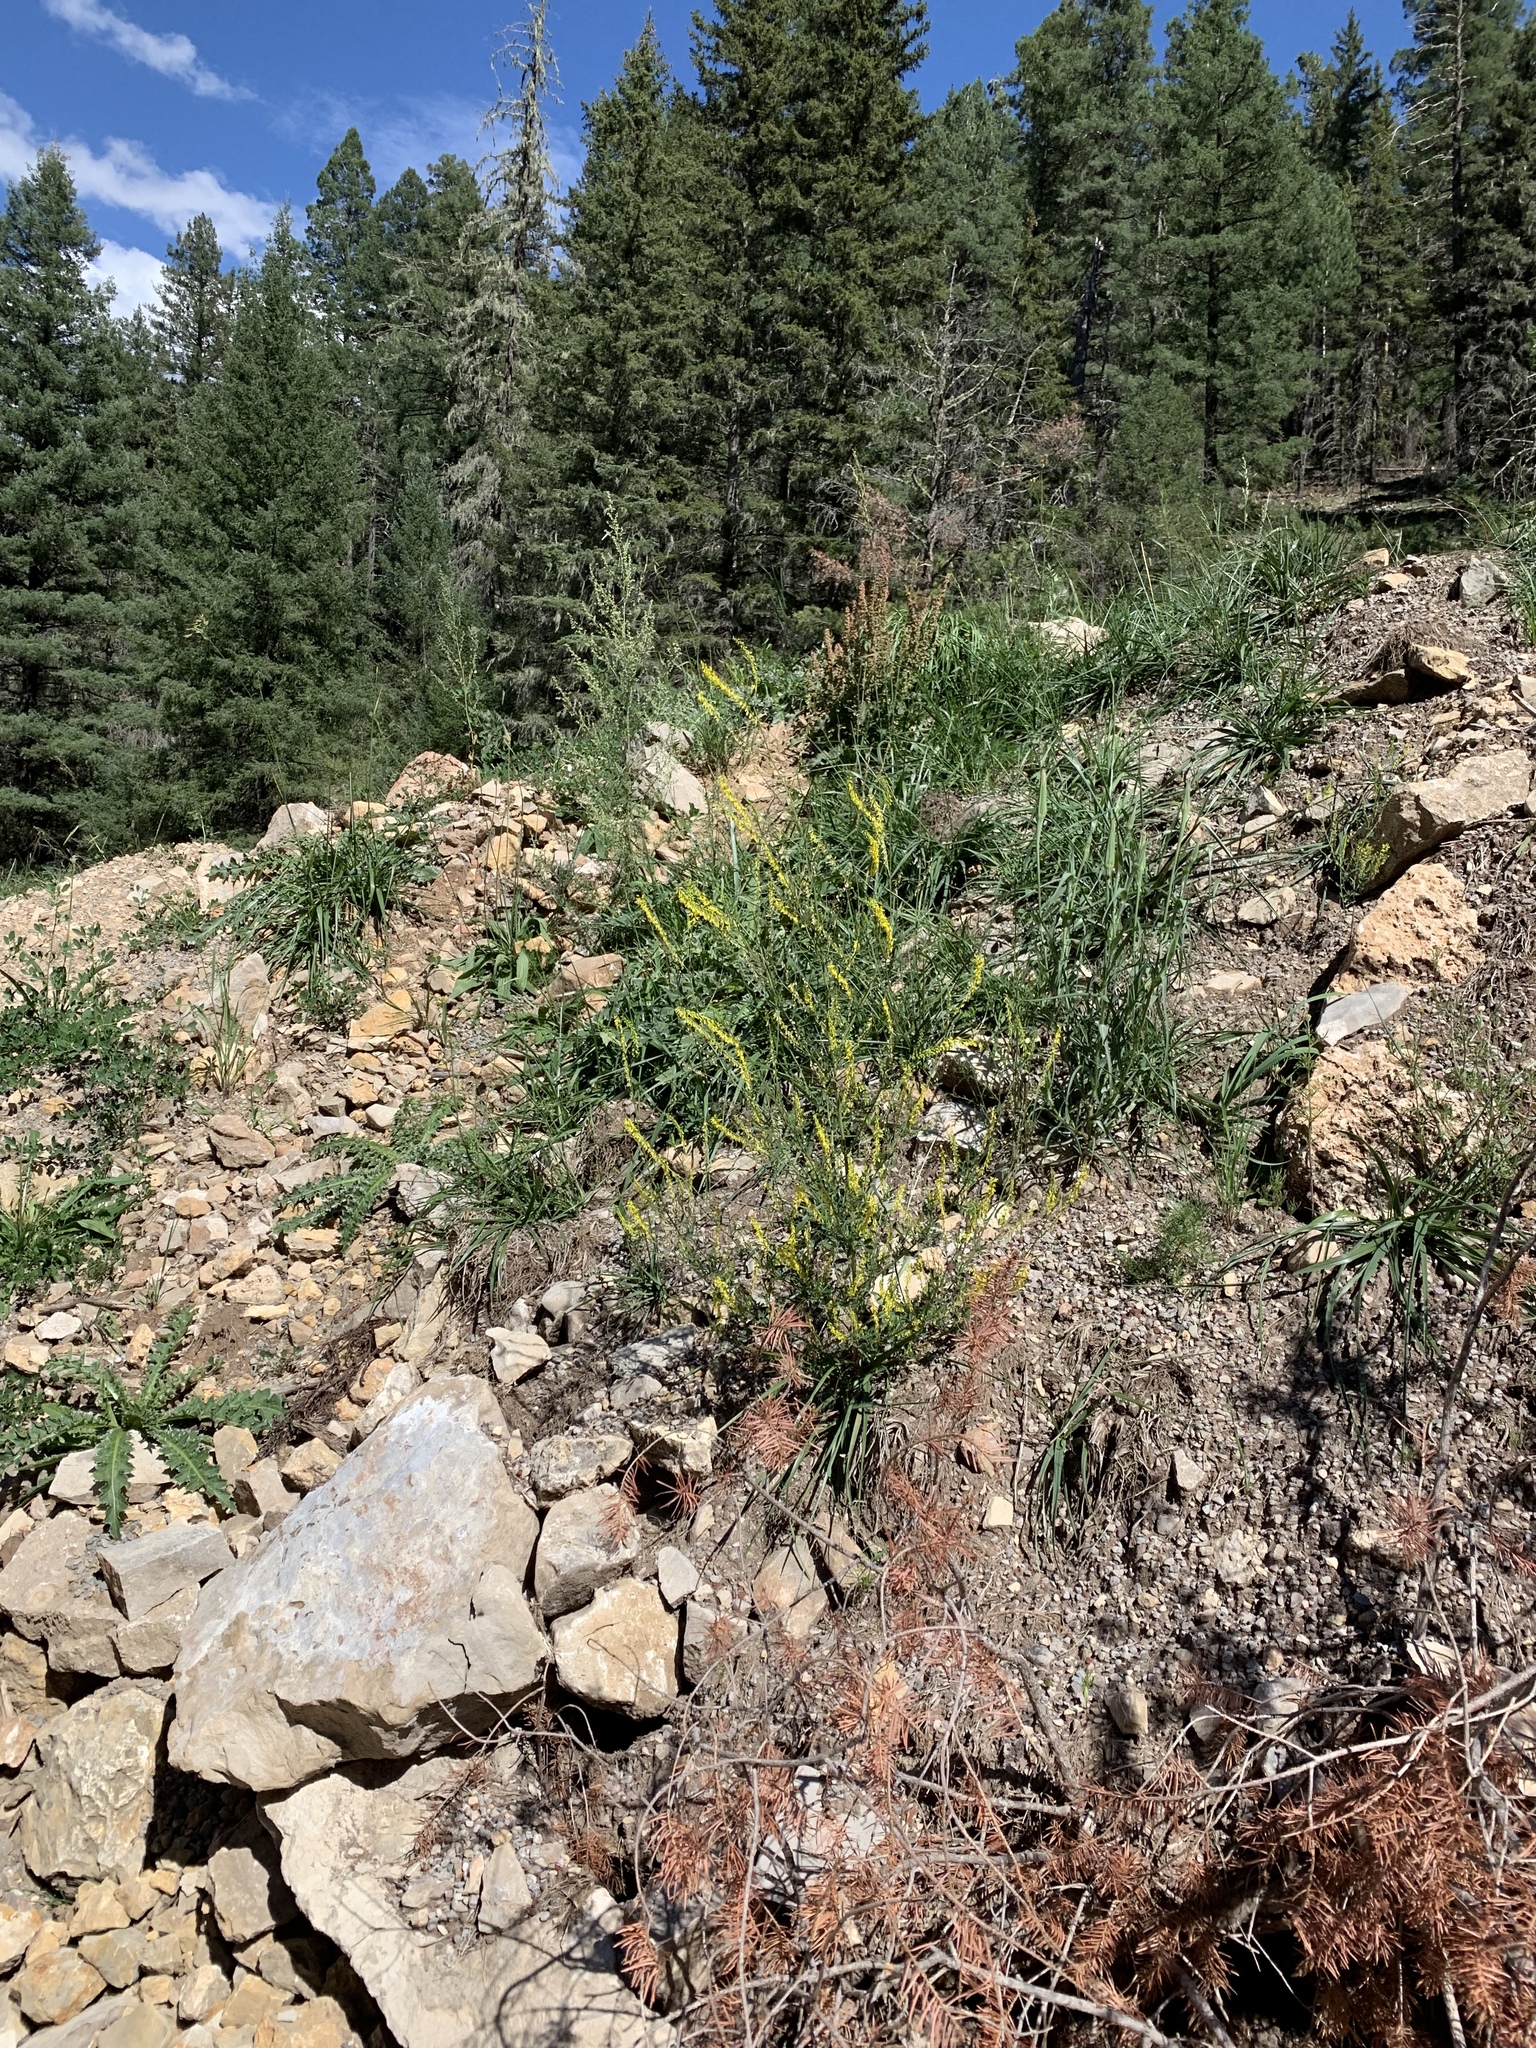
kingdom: Plantae
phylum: Tracheophyta
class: Magnoliopsida
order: Fabales
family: Fabaceae
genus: Melilotus
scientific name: Melilotus officinalis
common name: Sweetclover
